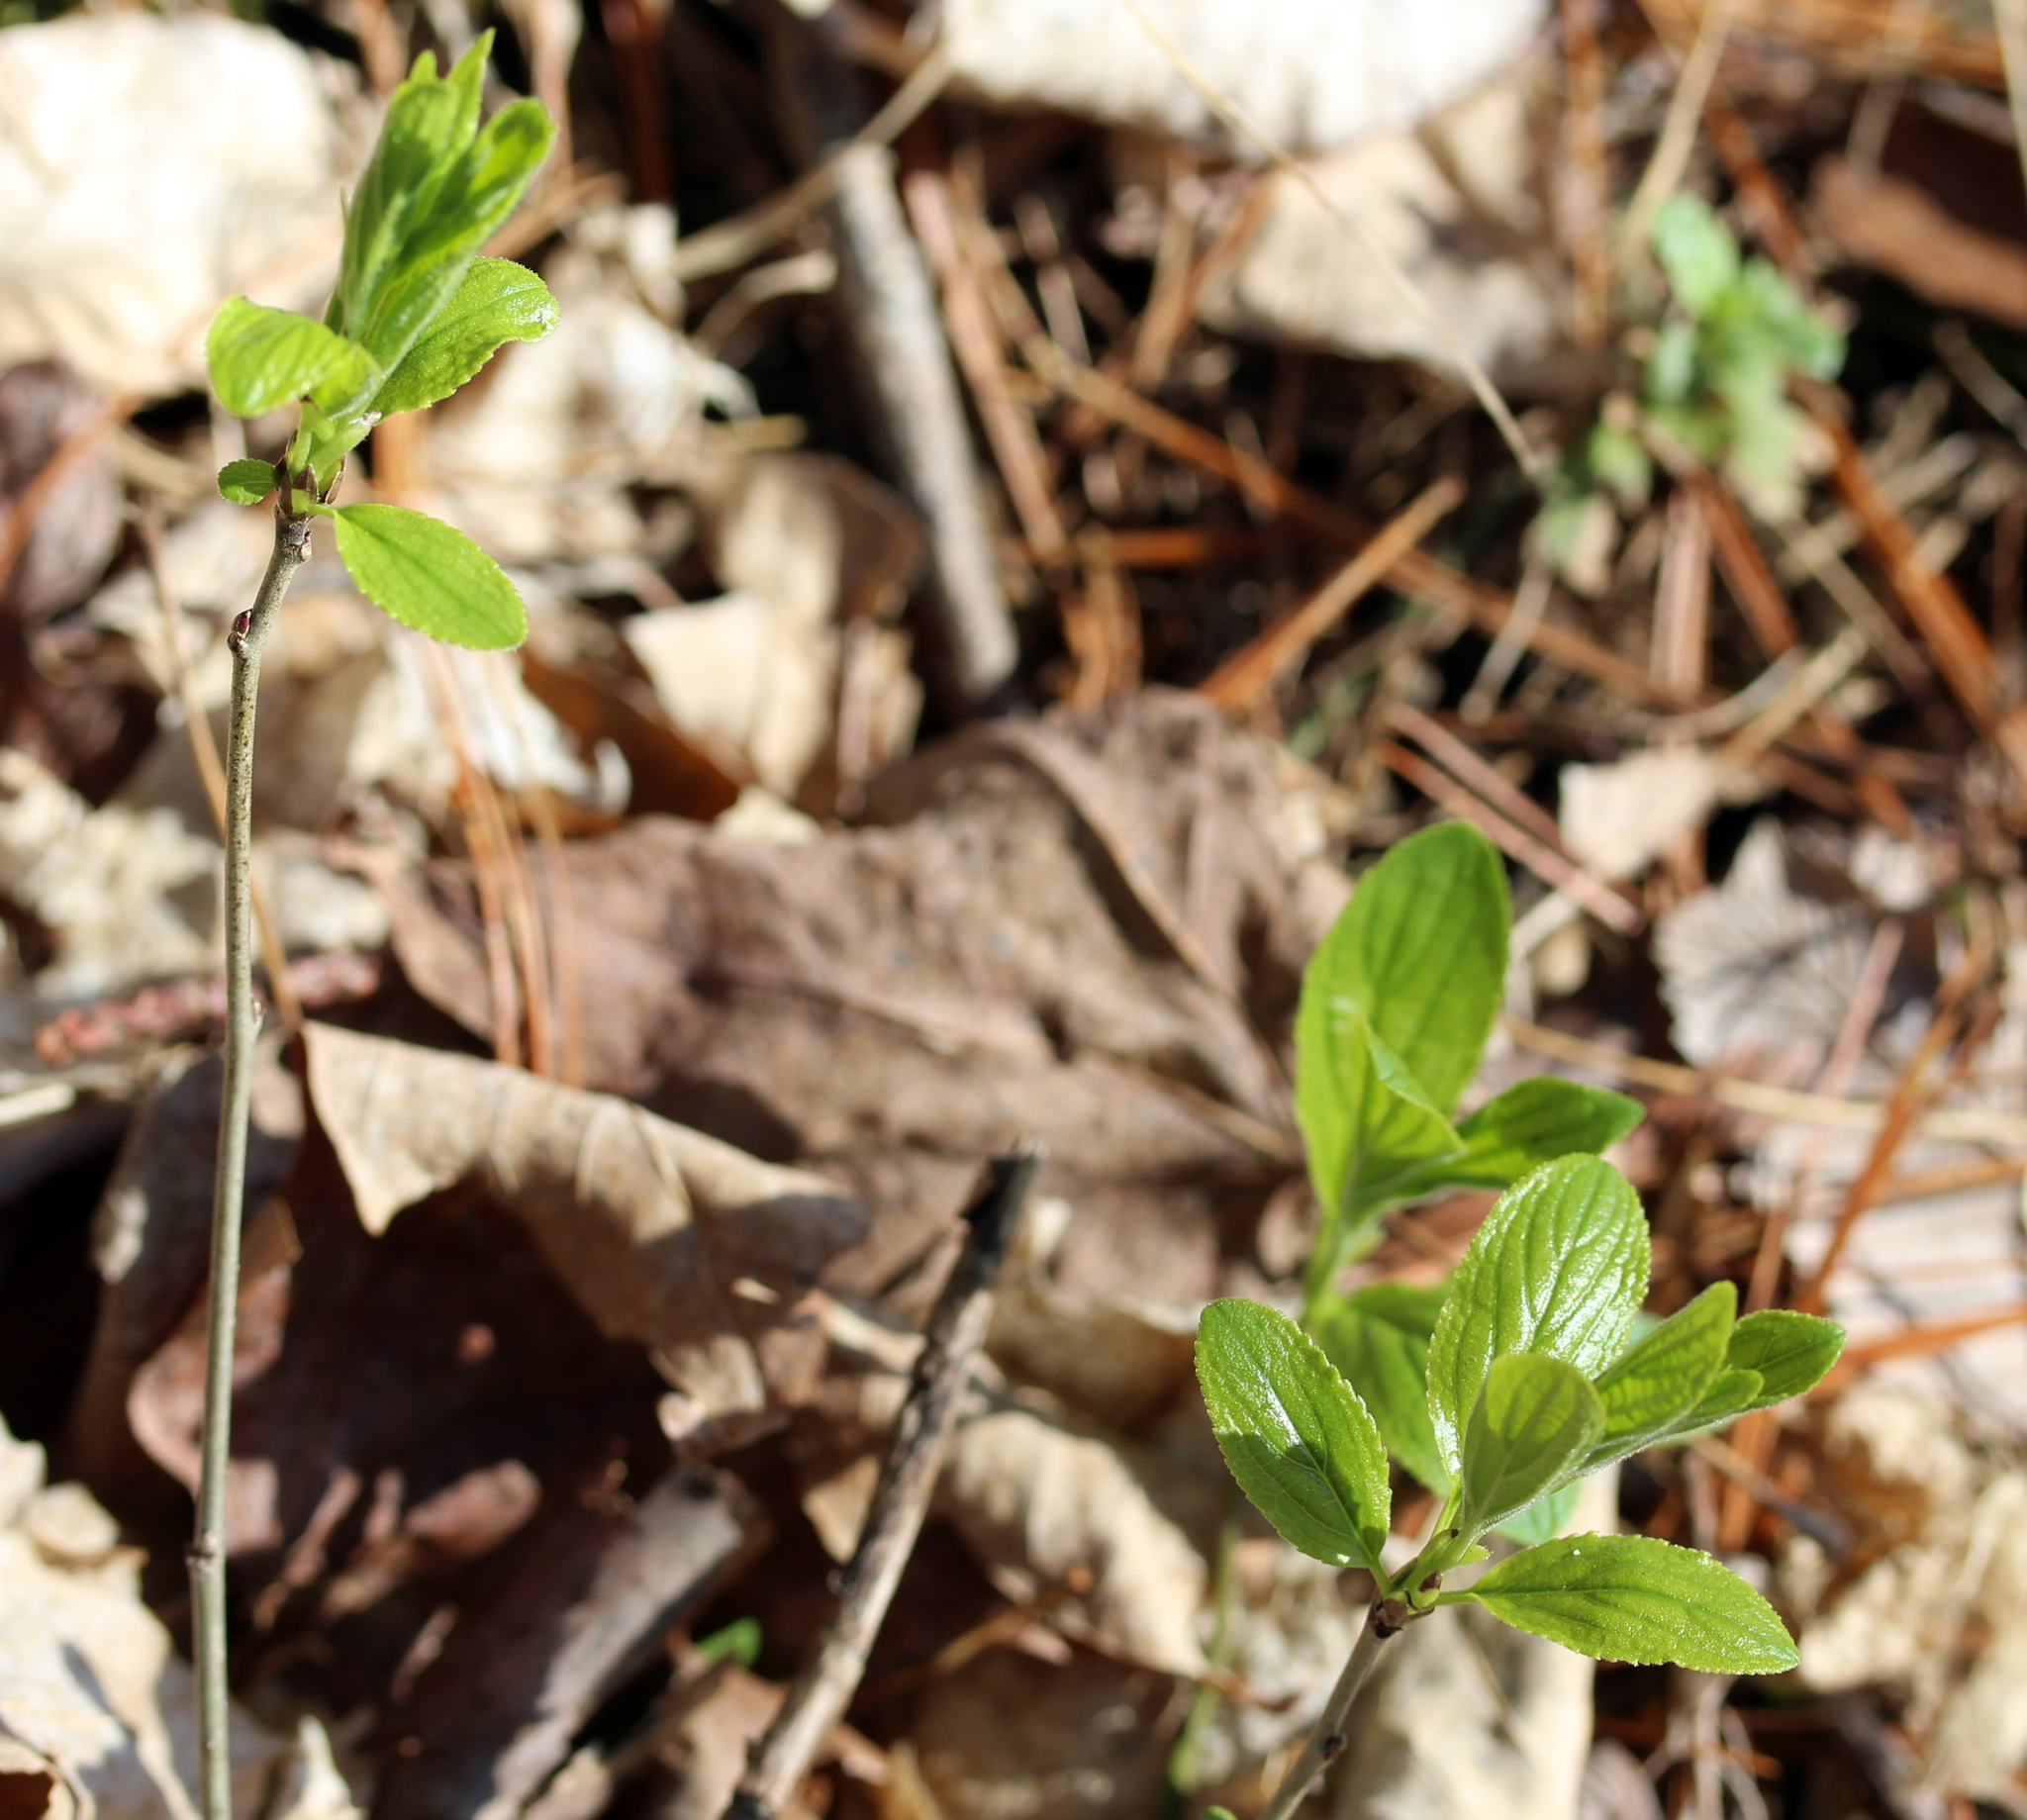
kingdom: Plantae
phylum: Tracheophyta
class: Magnoliopsida
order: Rosales
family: Rhamnaceae
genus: Rhamnus
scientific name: Rhamnus cathartica
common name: Common buckthorn
